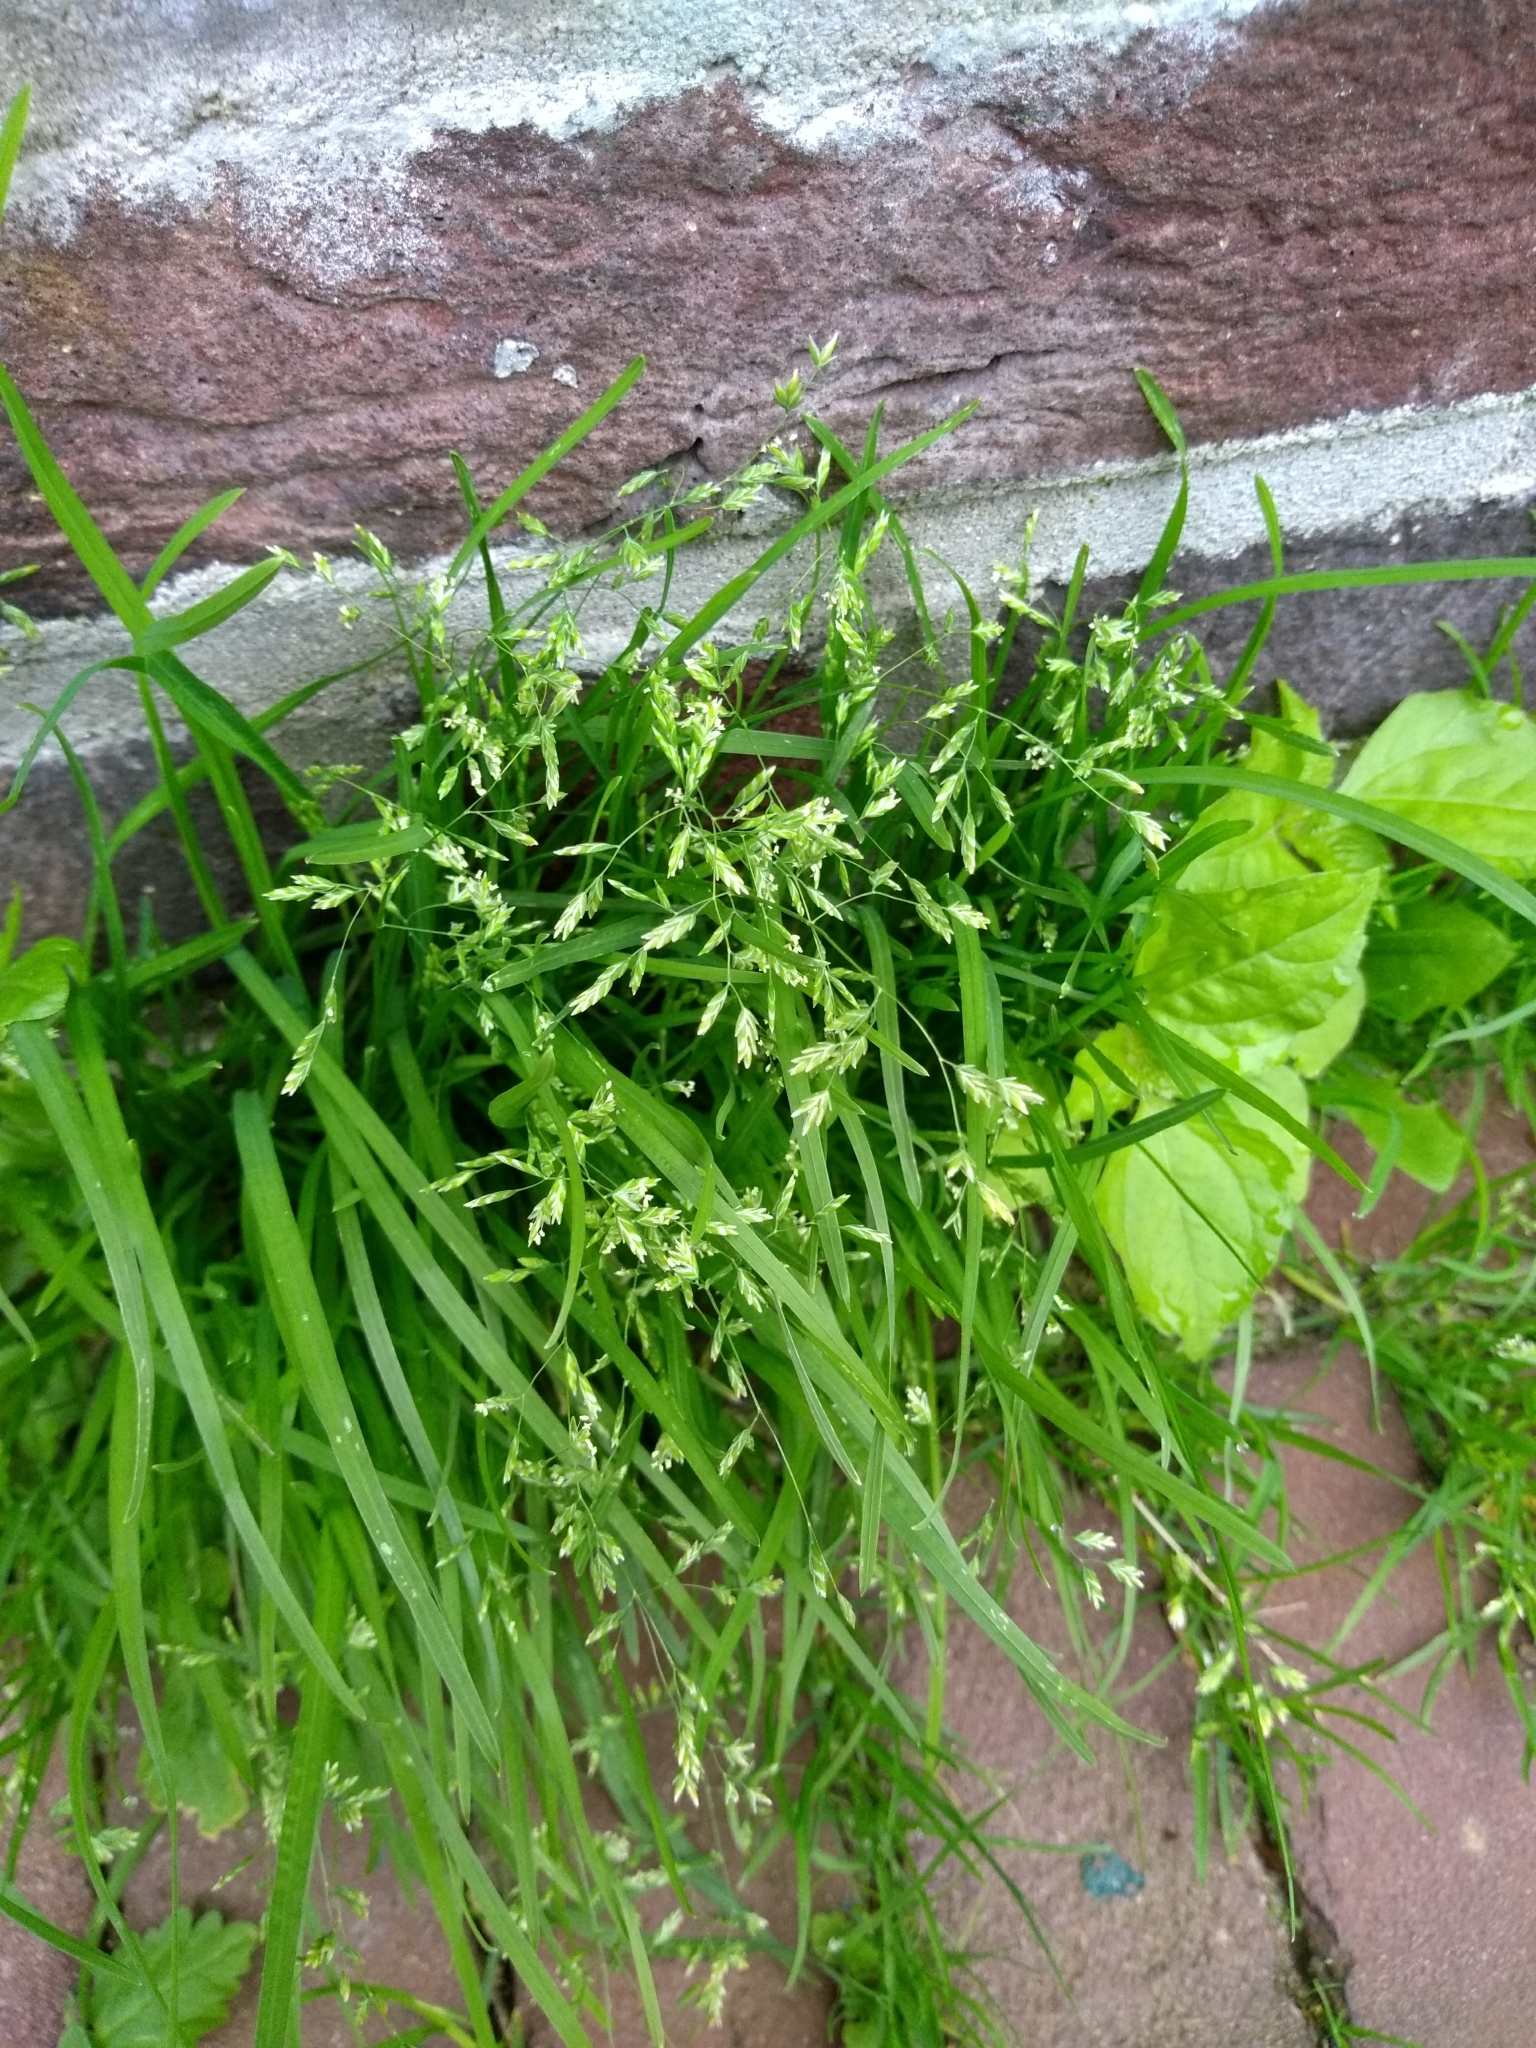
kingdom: Plantae
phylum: Tracheophyta
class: Liliopsida
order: Poales
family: Poaceae
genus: Poa
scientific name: Poa annua
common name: Annual bluegrass
